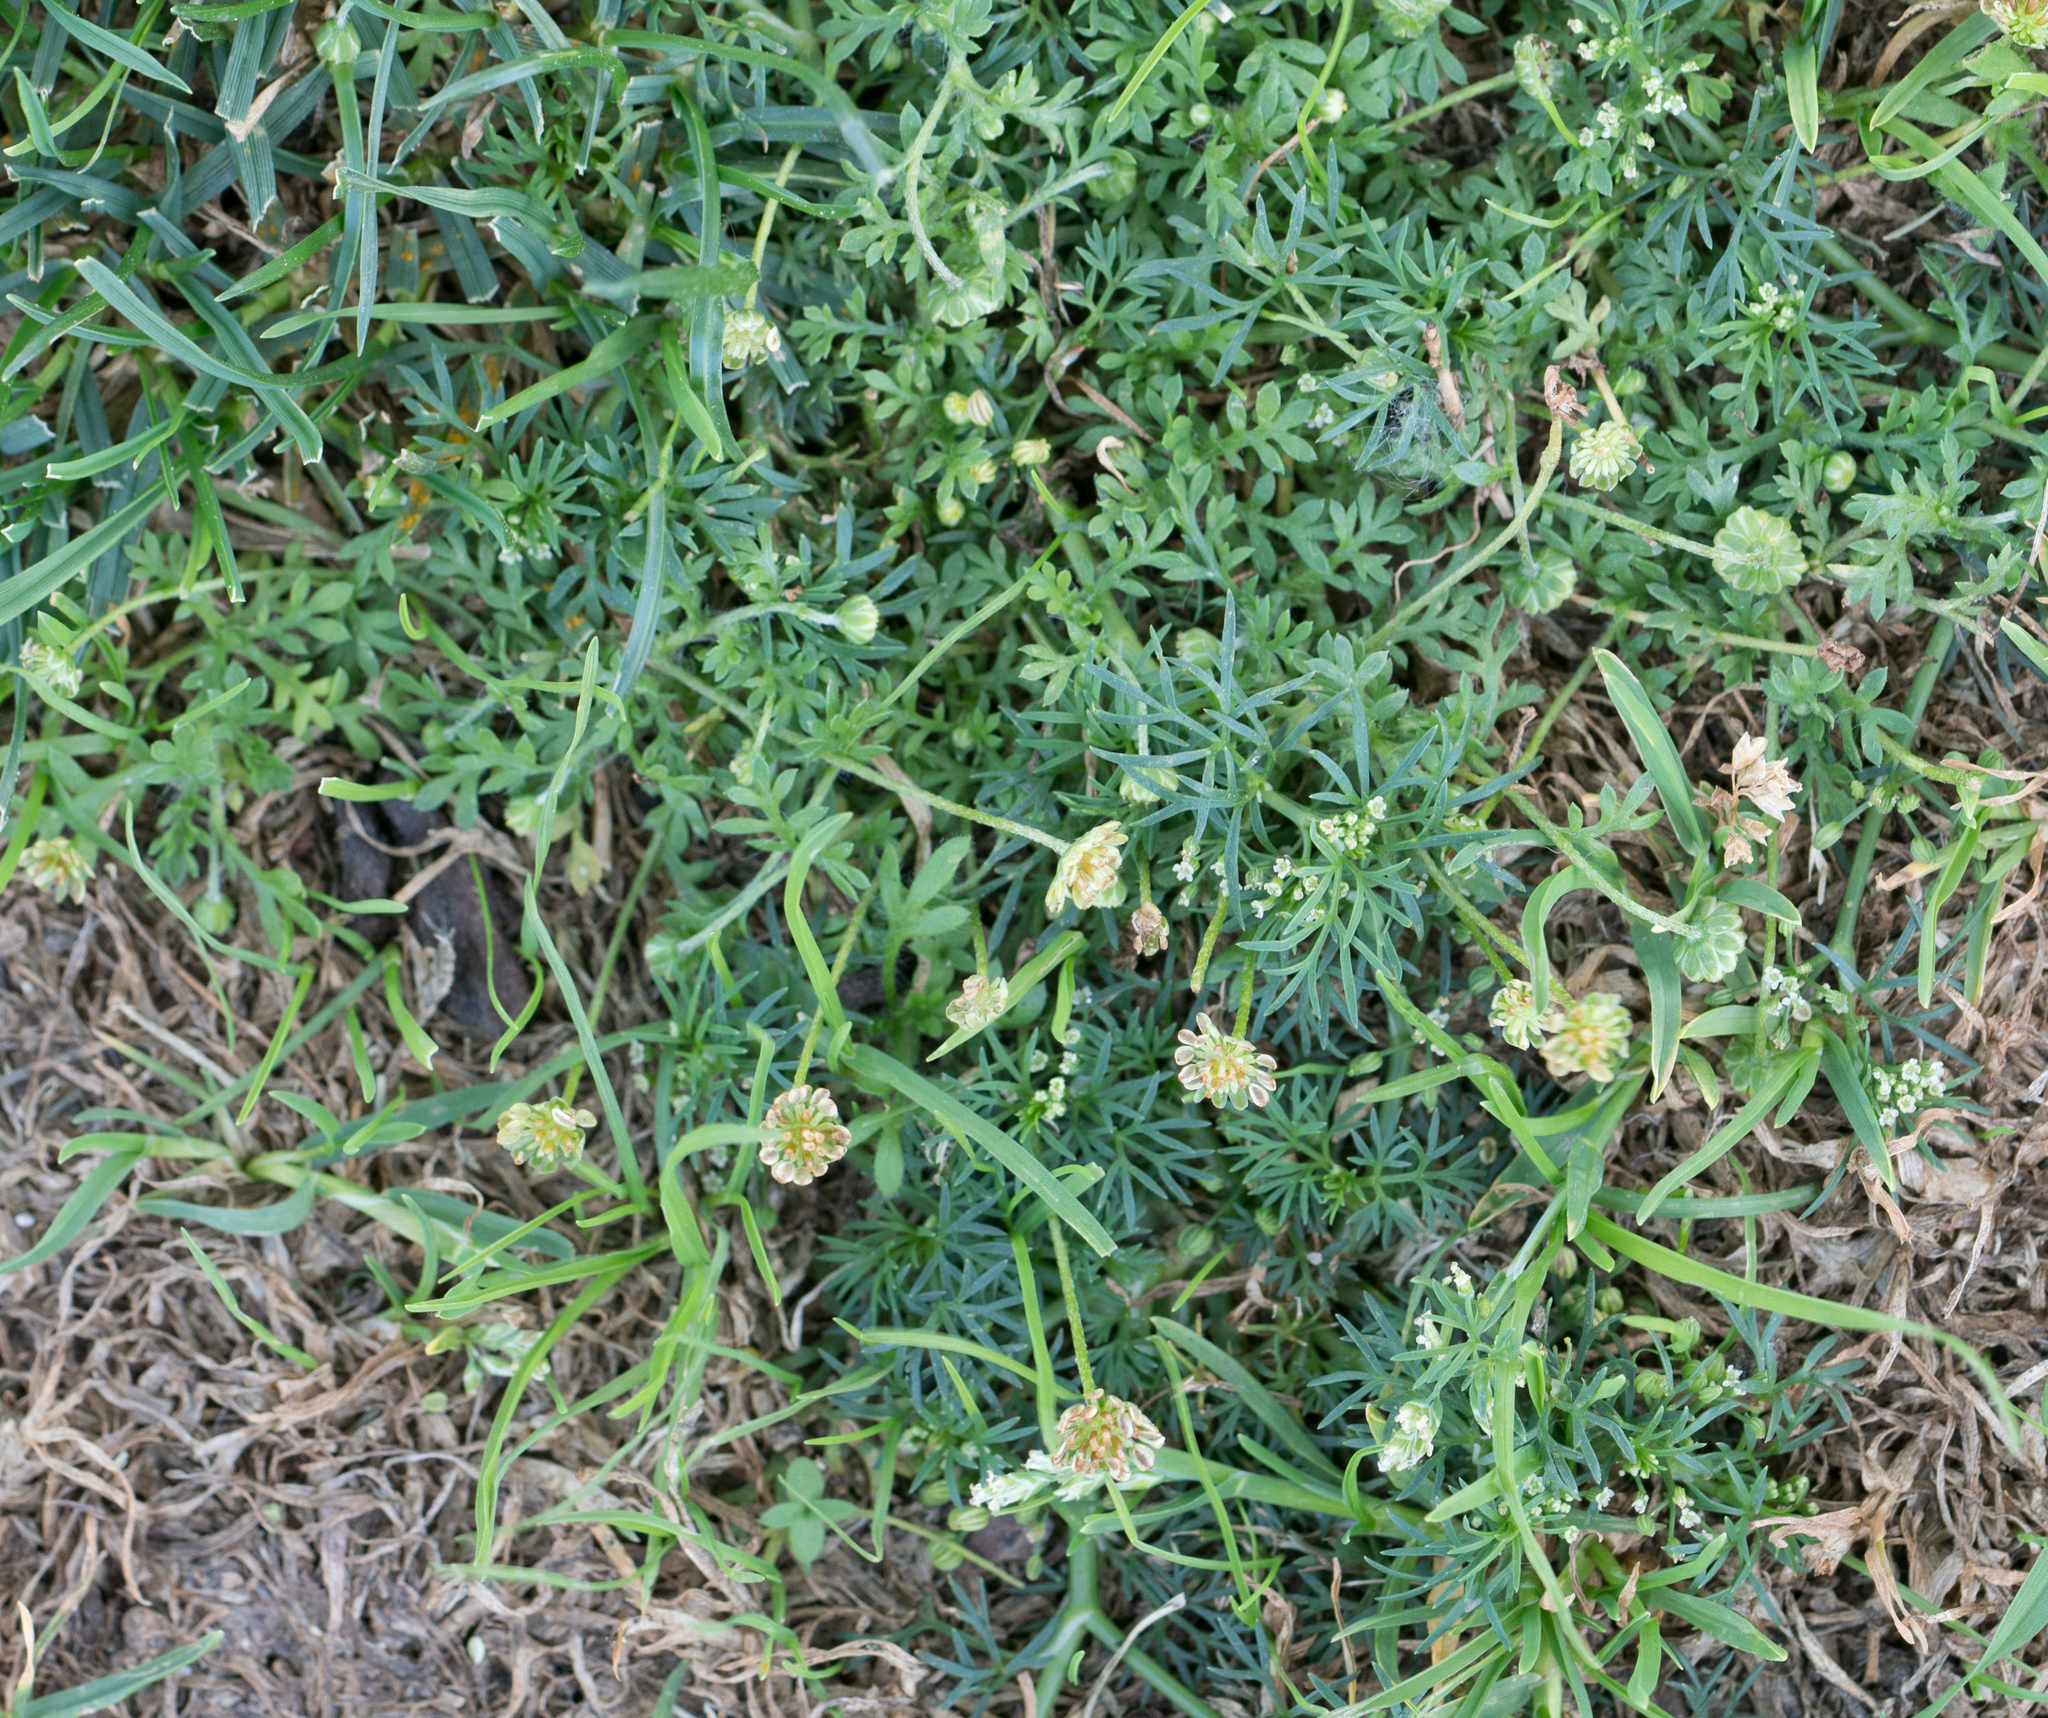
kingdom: Plantae
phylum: Tracheophyta
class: Magnoliopsida
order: Asterales
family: Asteraceae
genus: Cotula
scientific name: Cotula australis
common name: Australian waterbuttons
